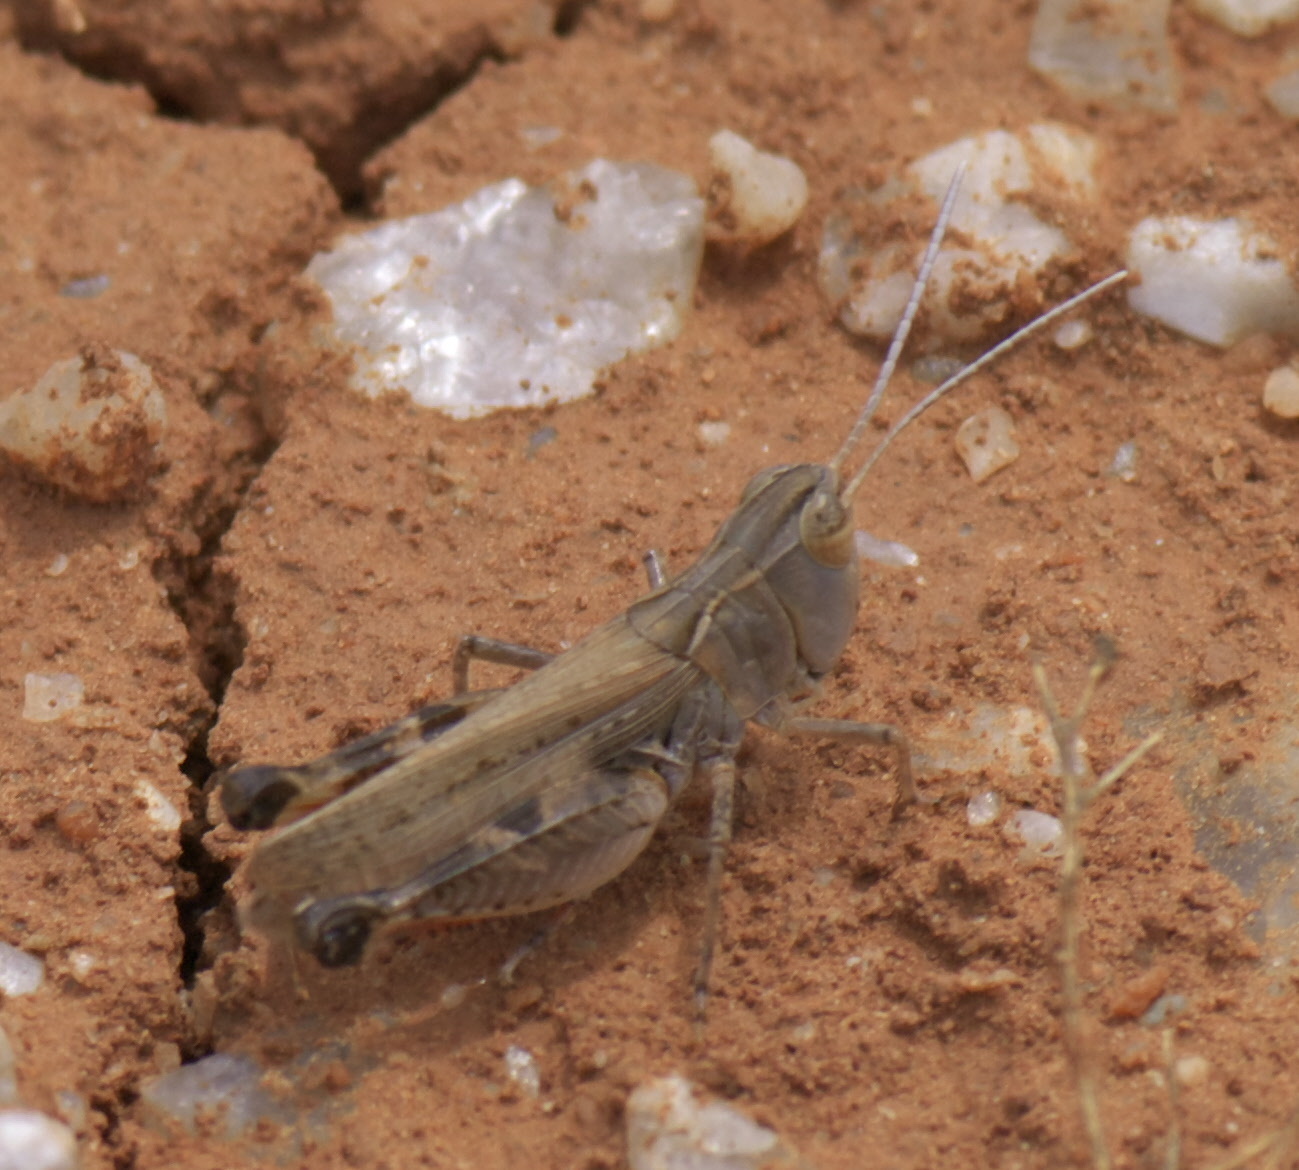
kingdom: Animalia
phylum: Arthropoda
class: Insecta
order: Orthoptera
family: Acrididae
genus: Ageneotettix
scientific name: Ageneotettix deorum
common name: White-whiskered grasshopper
